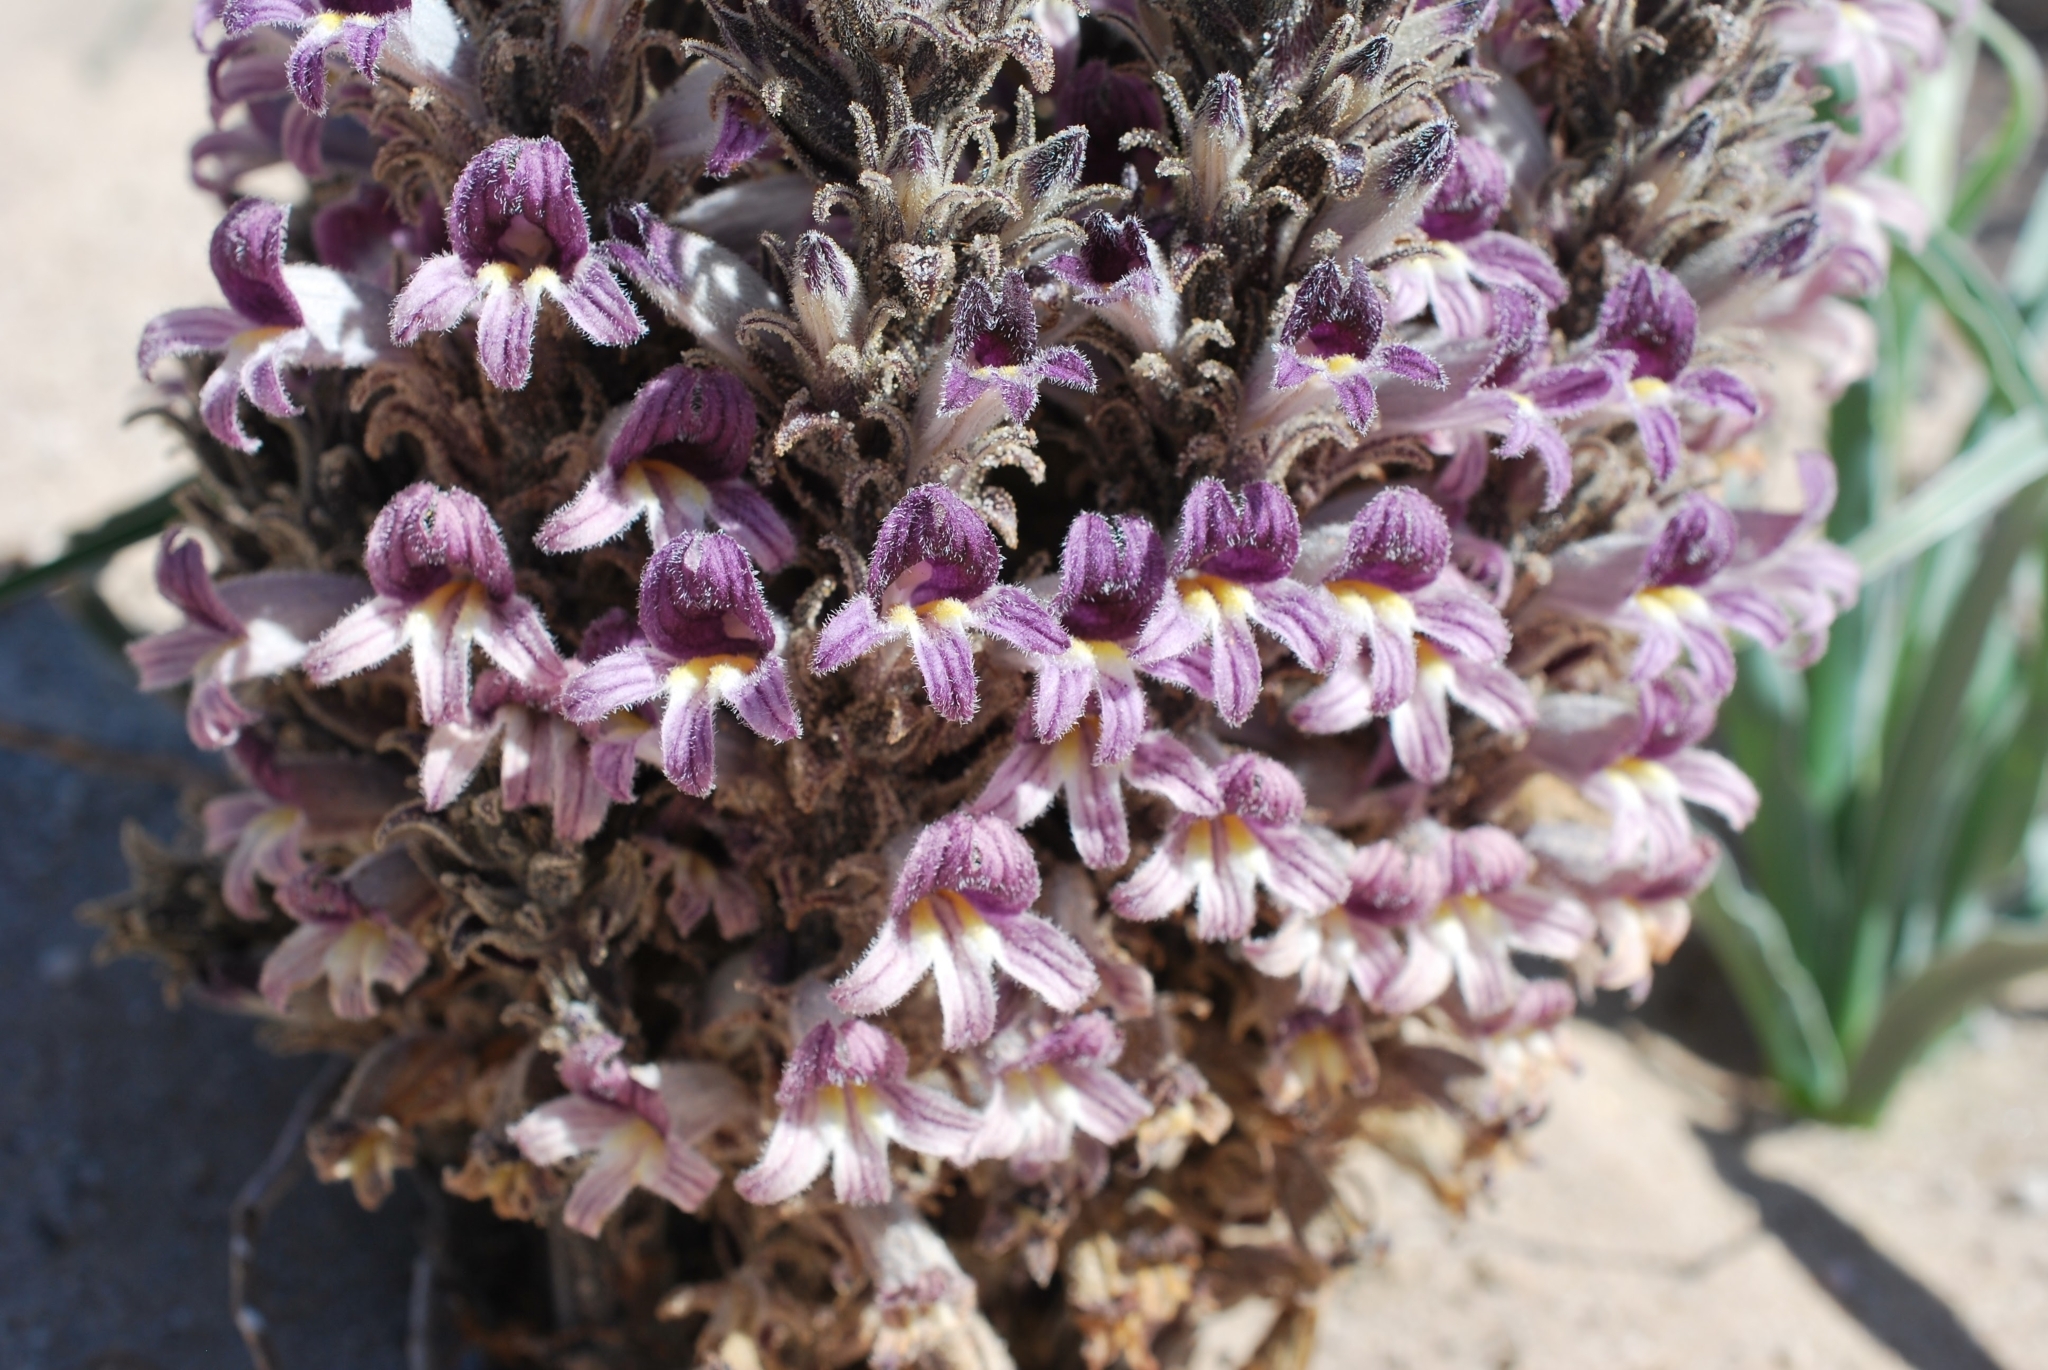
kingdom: Plantae
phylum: Tracheophyta
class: Magnoliopsida
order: Lamiales
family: Orobanchaceae
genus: Aphyllon
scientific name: Aphyllon cooperi
